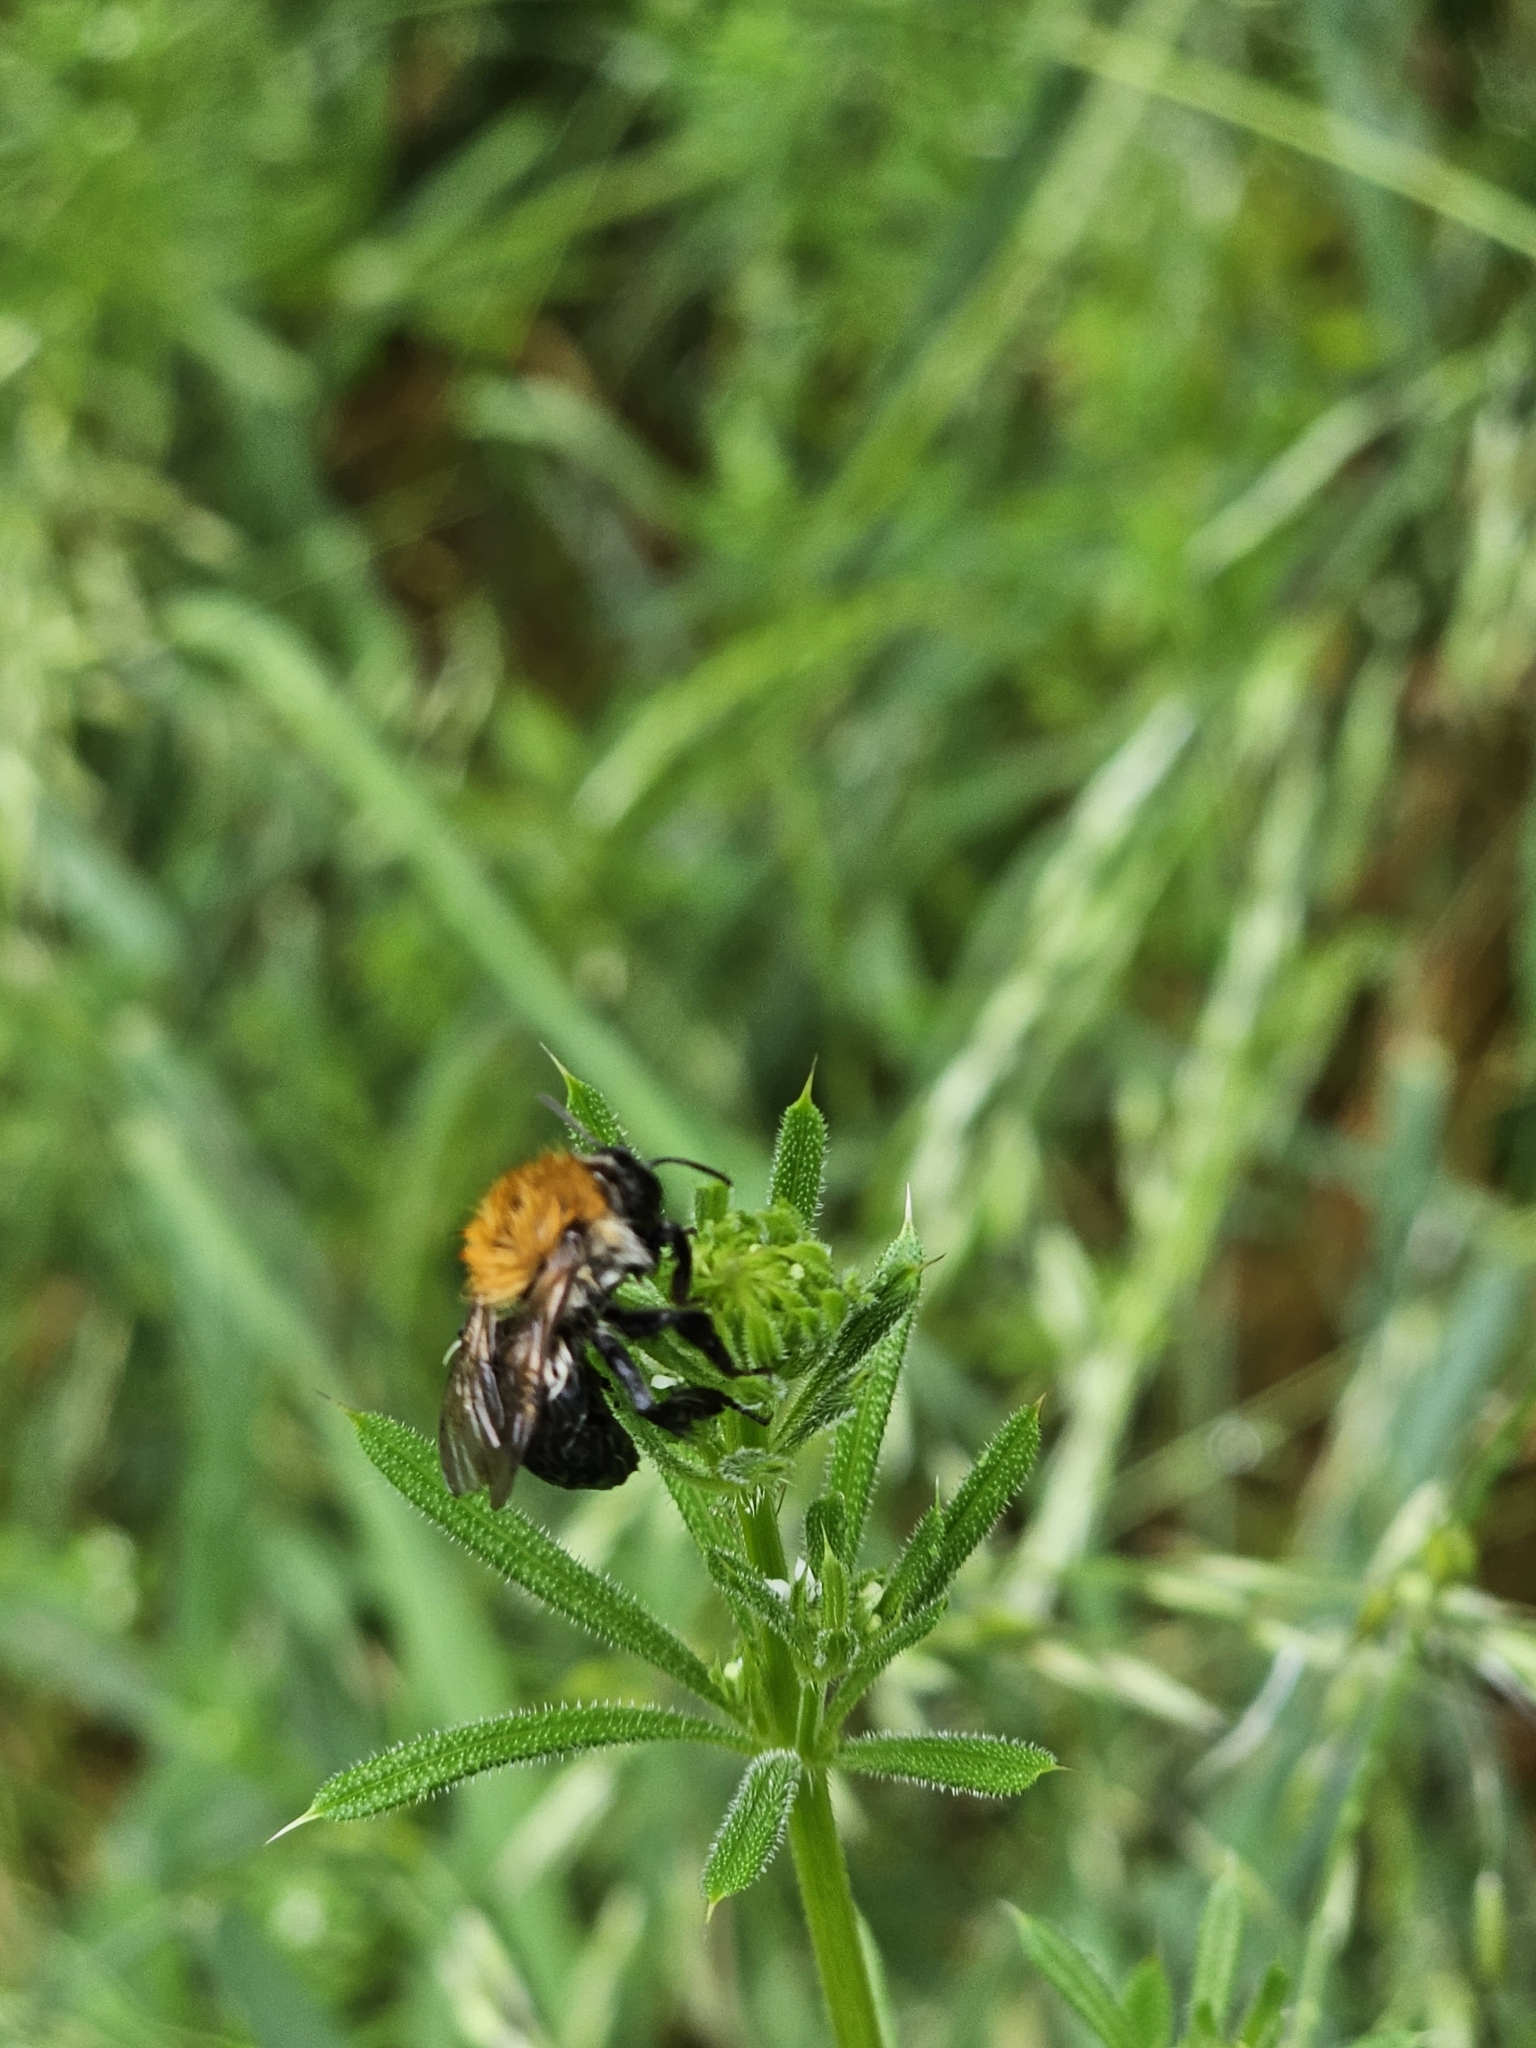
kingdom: Animalia
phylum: Arthropoda
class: Insecta
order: Hymenoptera
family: Apidae
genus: Bombus
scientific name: Bombus pascuorum
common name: Common carder bee
